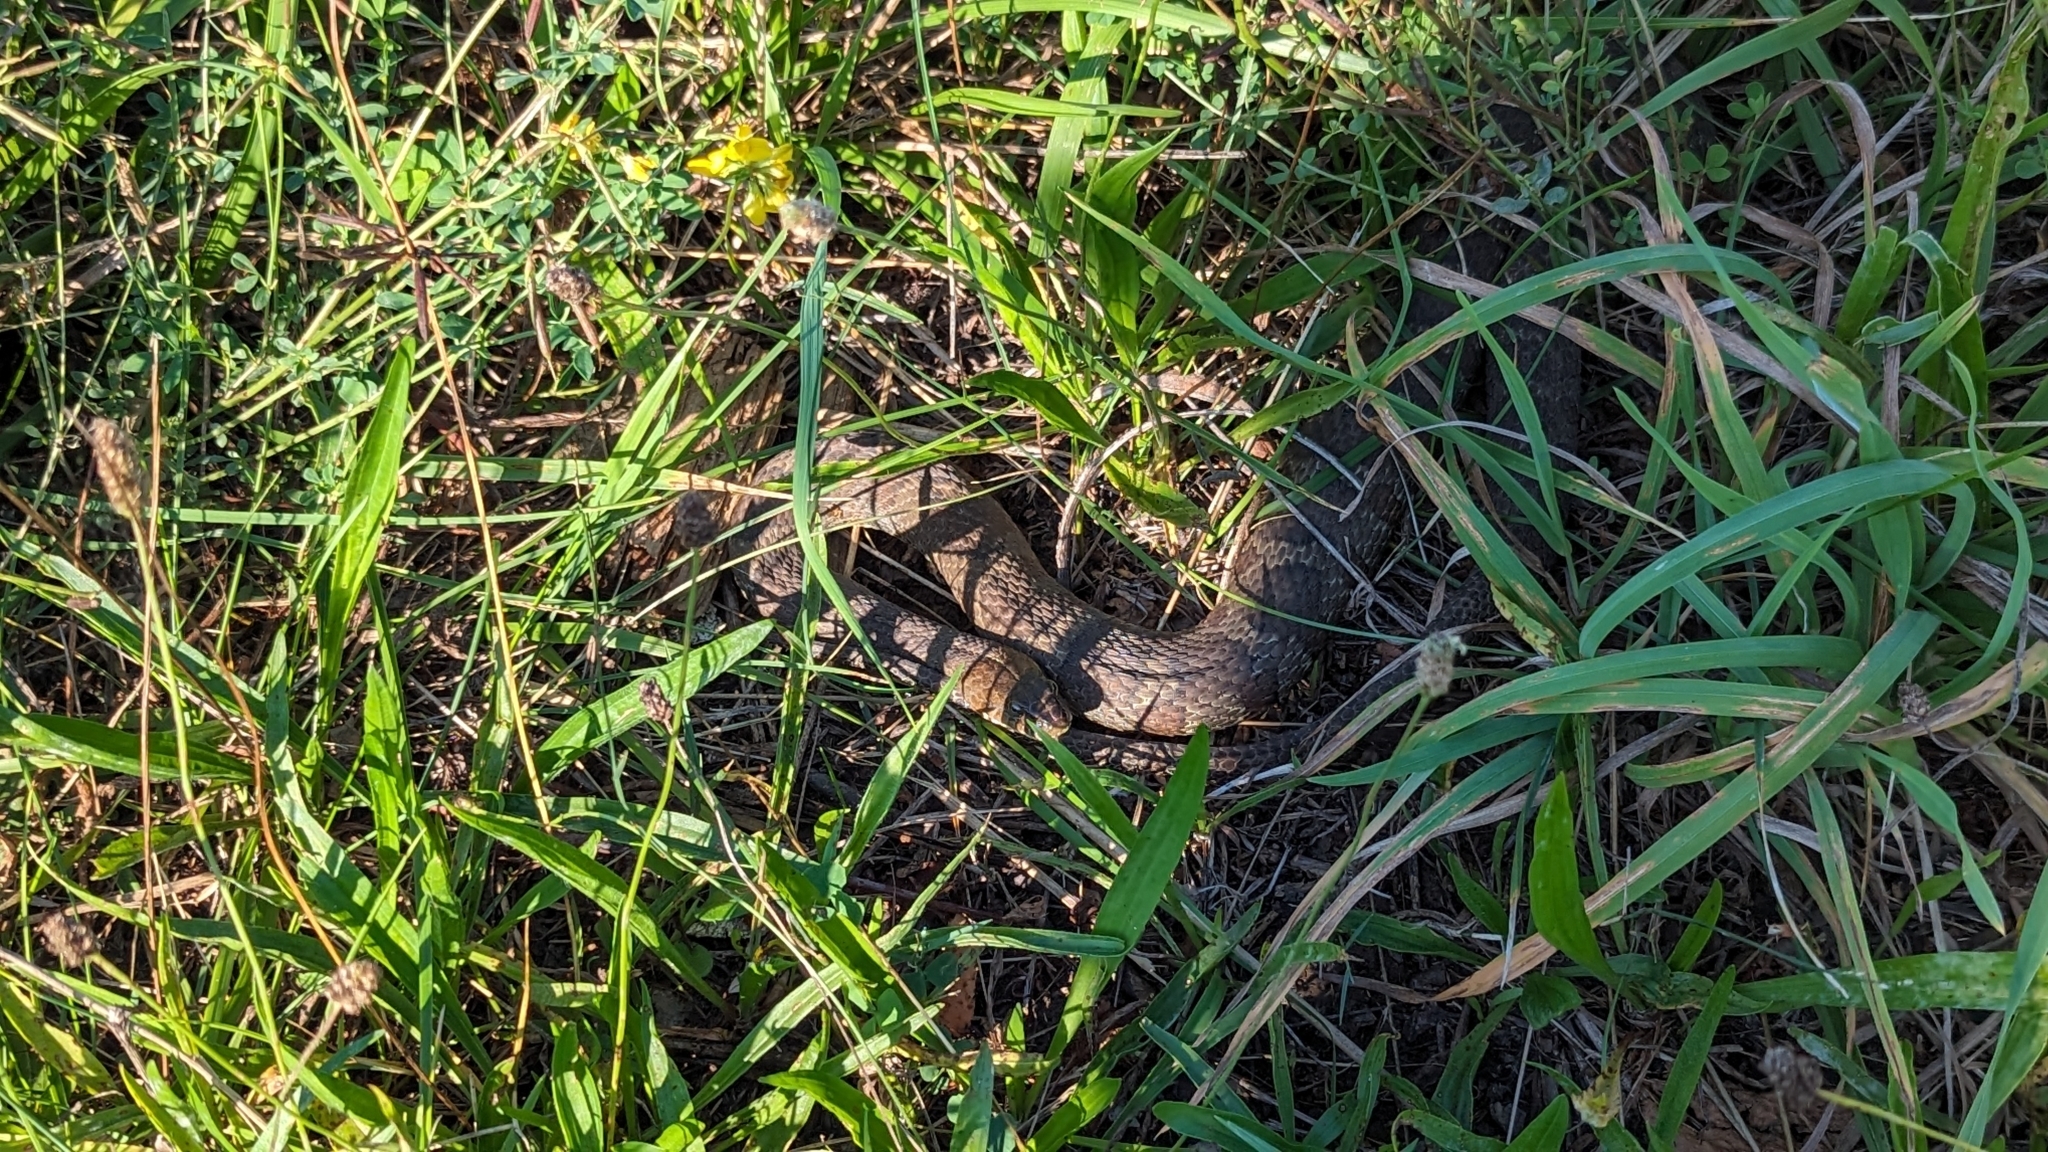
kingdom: Animalia
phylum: Chordata
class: Squamata
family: Colubridae
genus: Nerodia
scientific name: Nerodia sipedon
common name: Northern water snake
